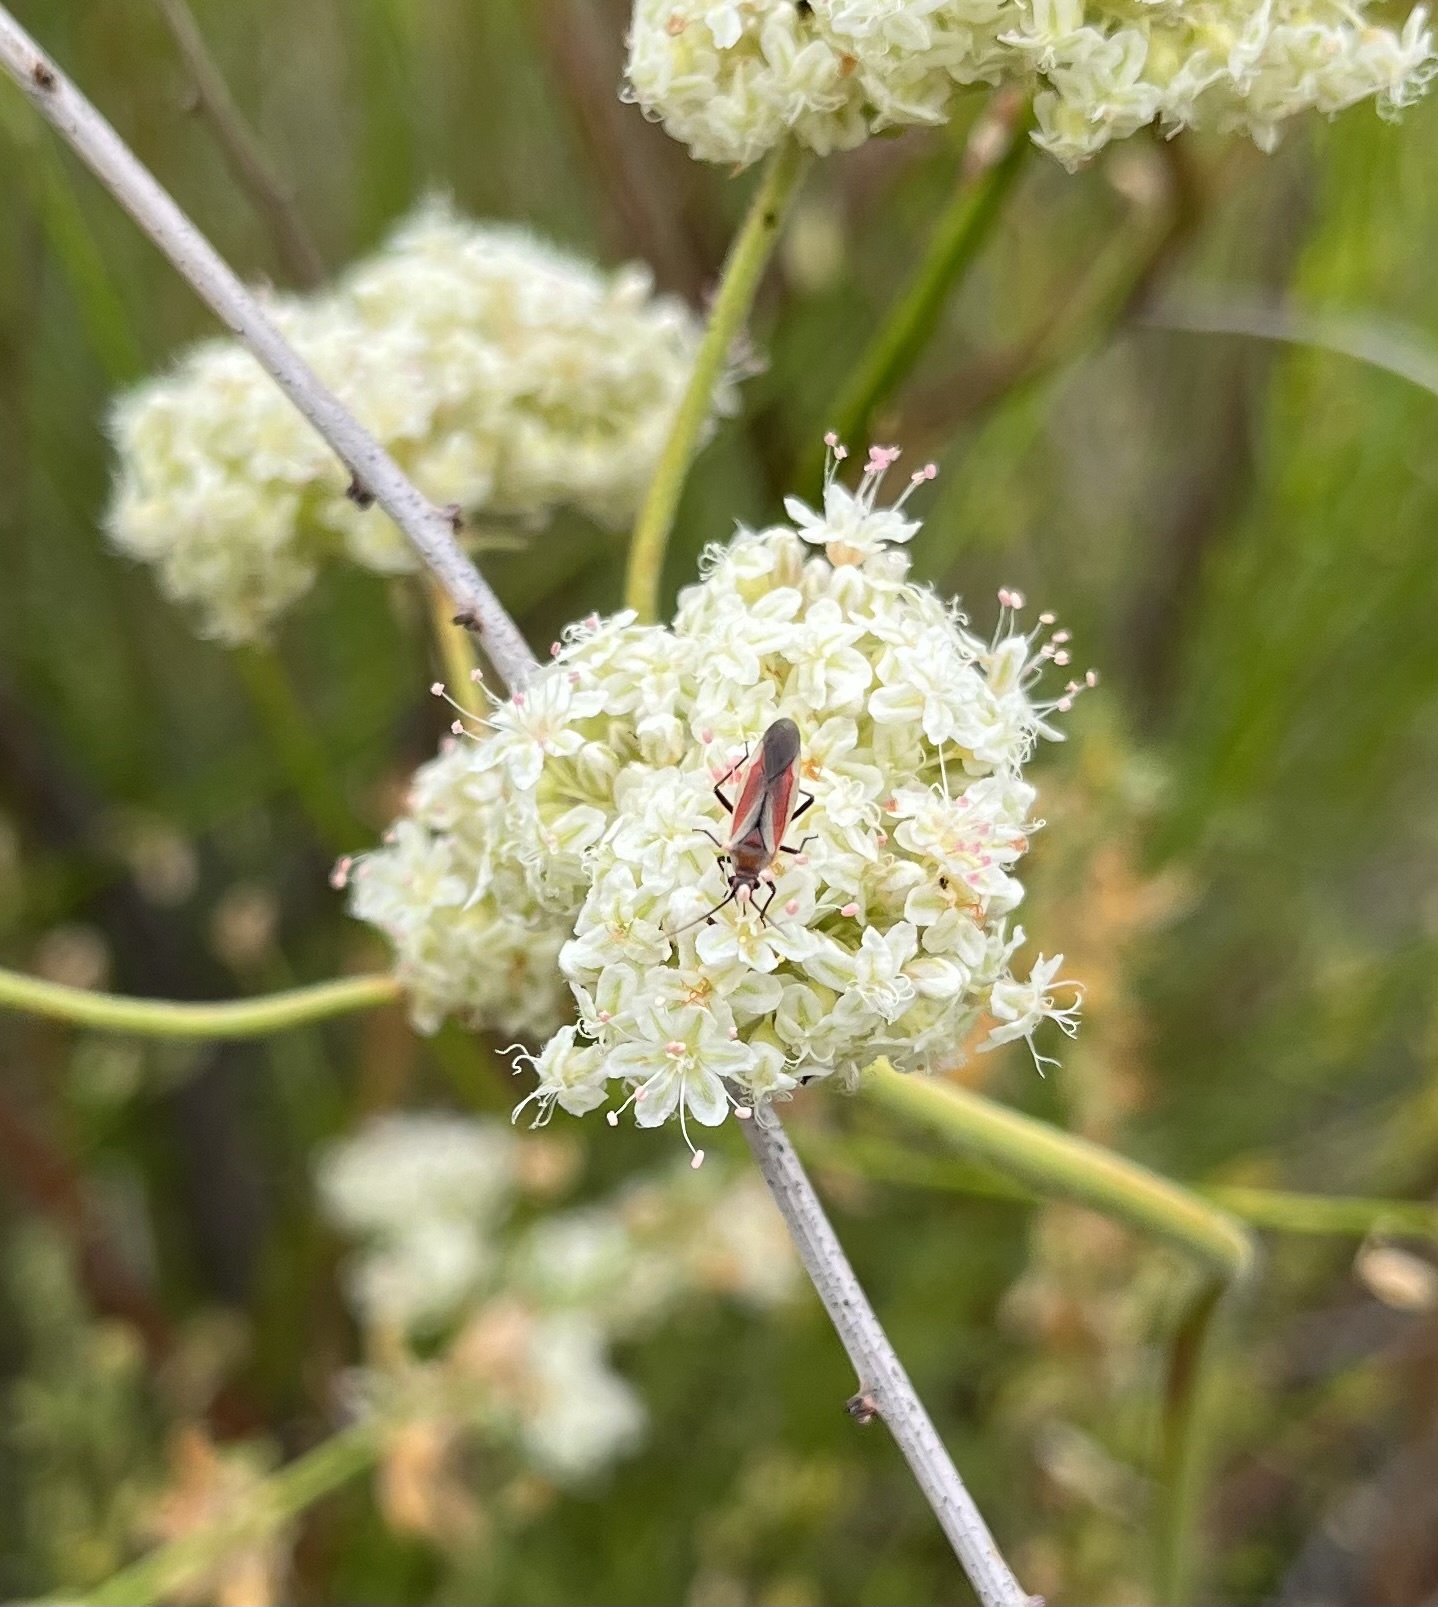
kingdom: Animalia
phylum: Arthropoda
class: Insecta
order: Hemiptera
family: Miridae
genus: Lopidea
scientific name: Lopidea marginata
